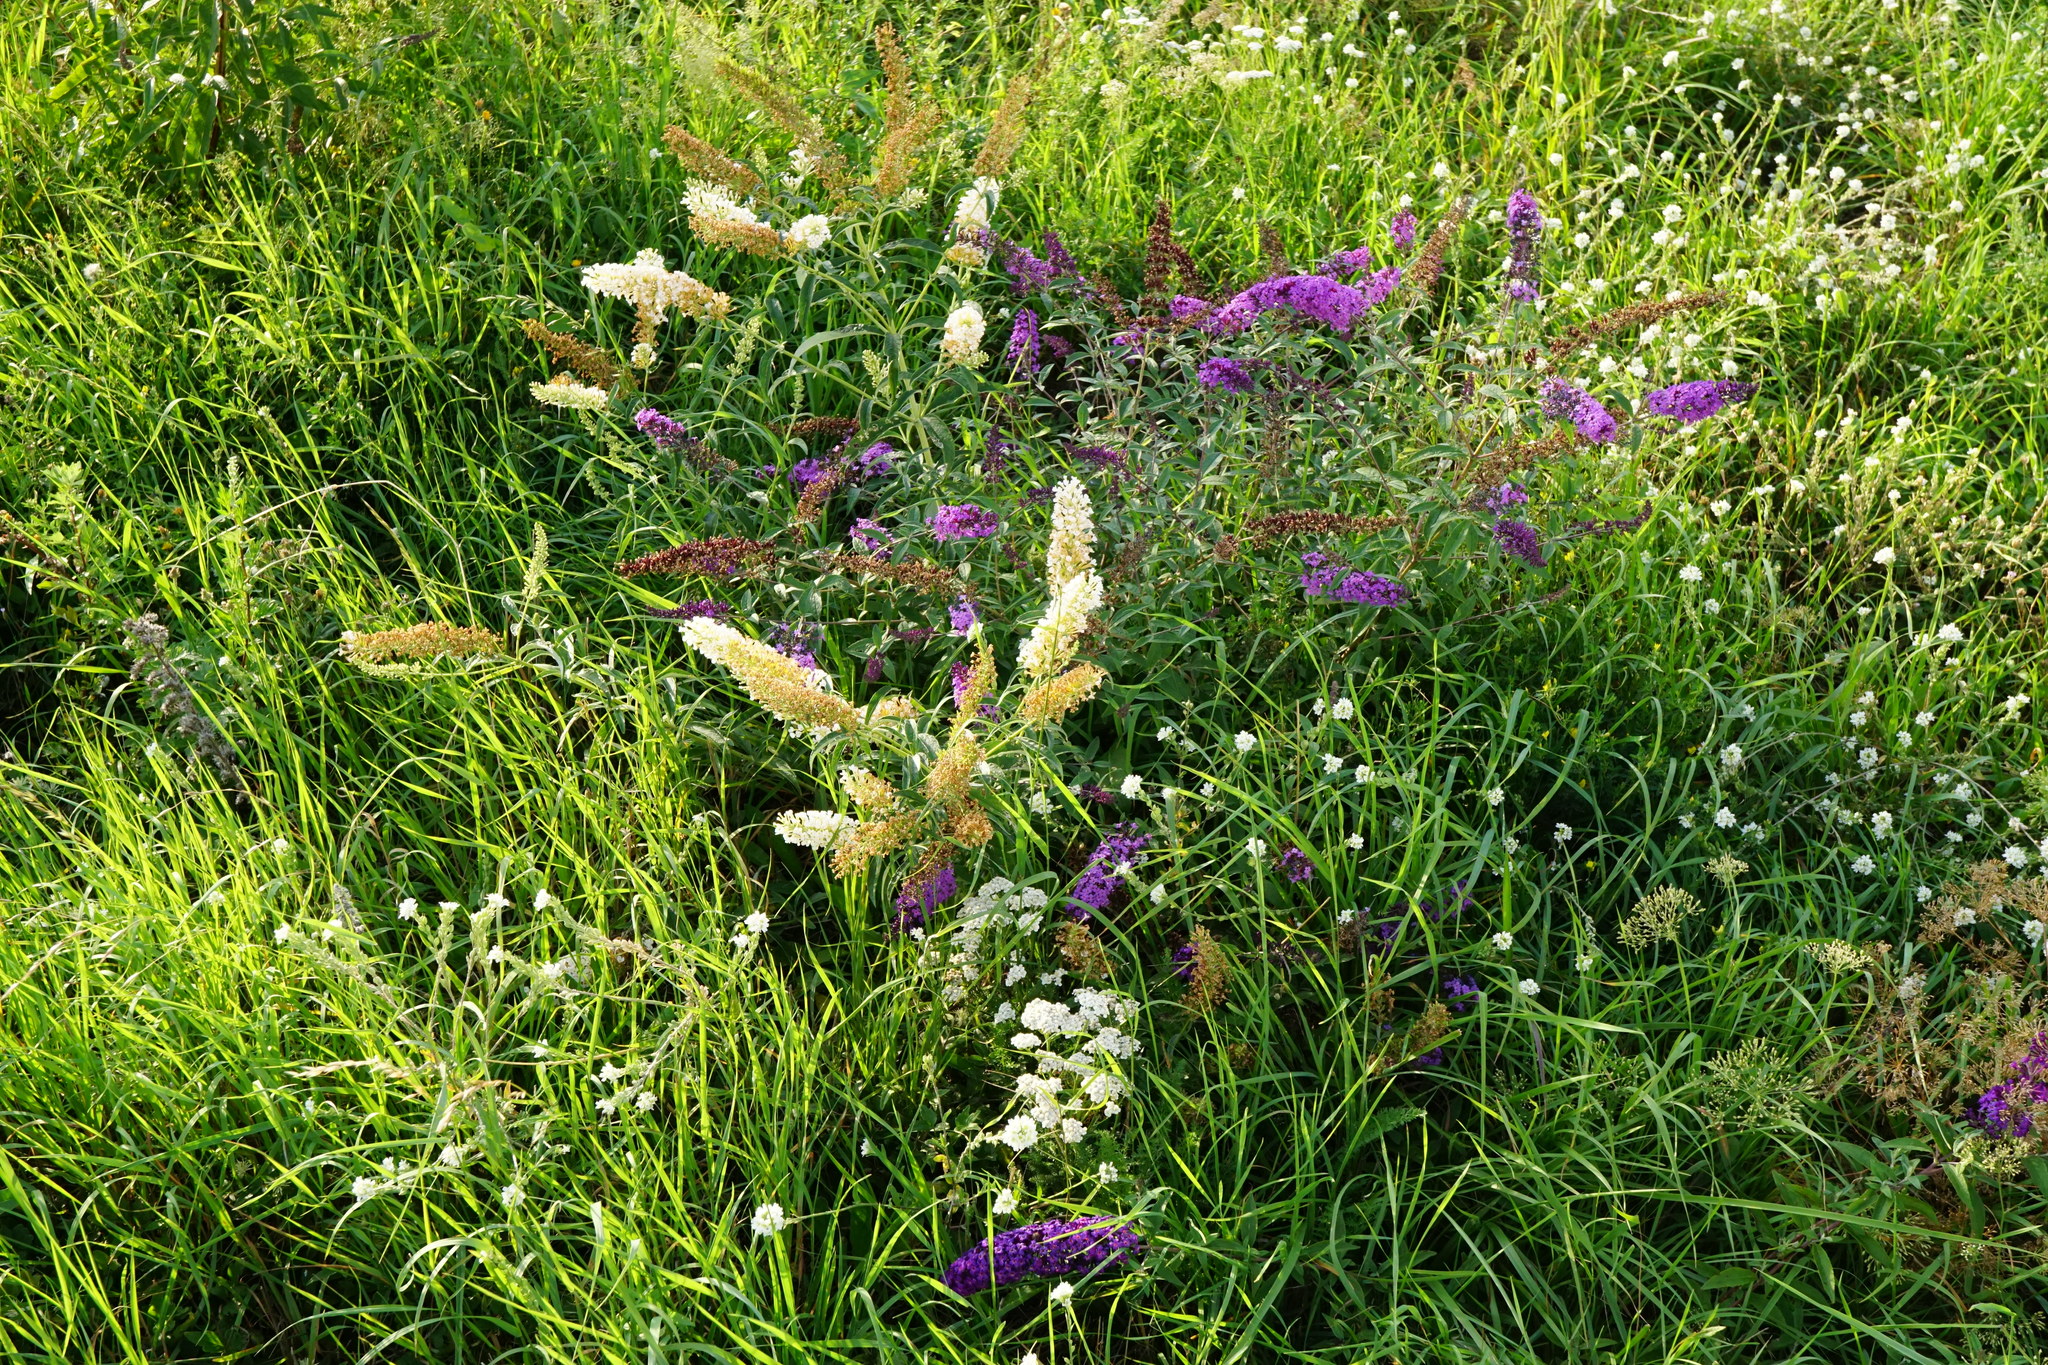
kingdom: Plantae
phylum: Tracheophyta
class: Magnoliopsida
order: Lamiales
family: Scrophulariaceae
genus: Buddleja
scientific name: Buddleja davidii
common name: Butterfly-bush
